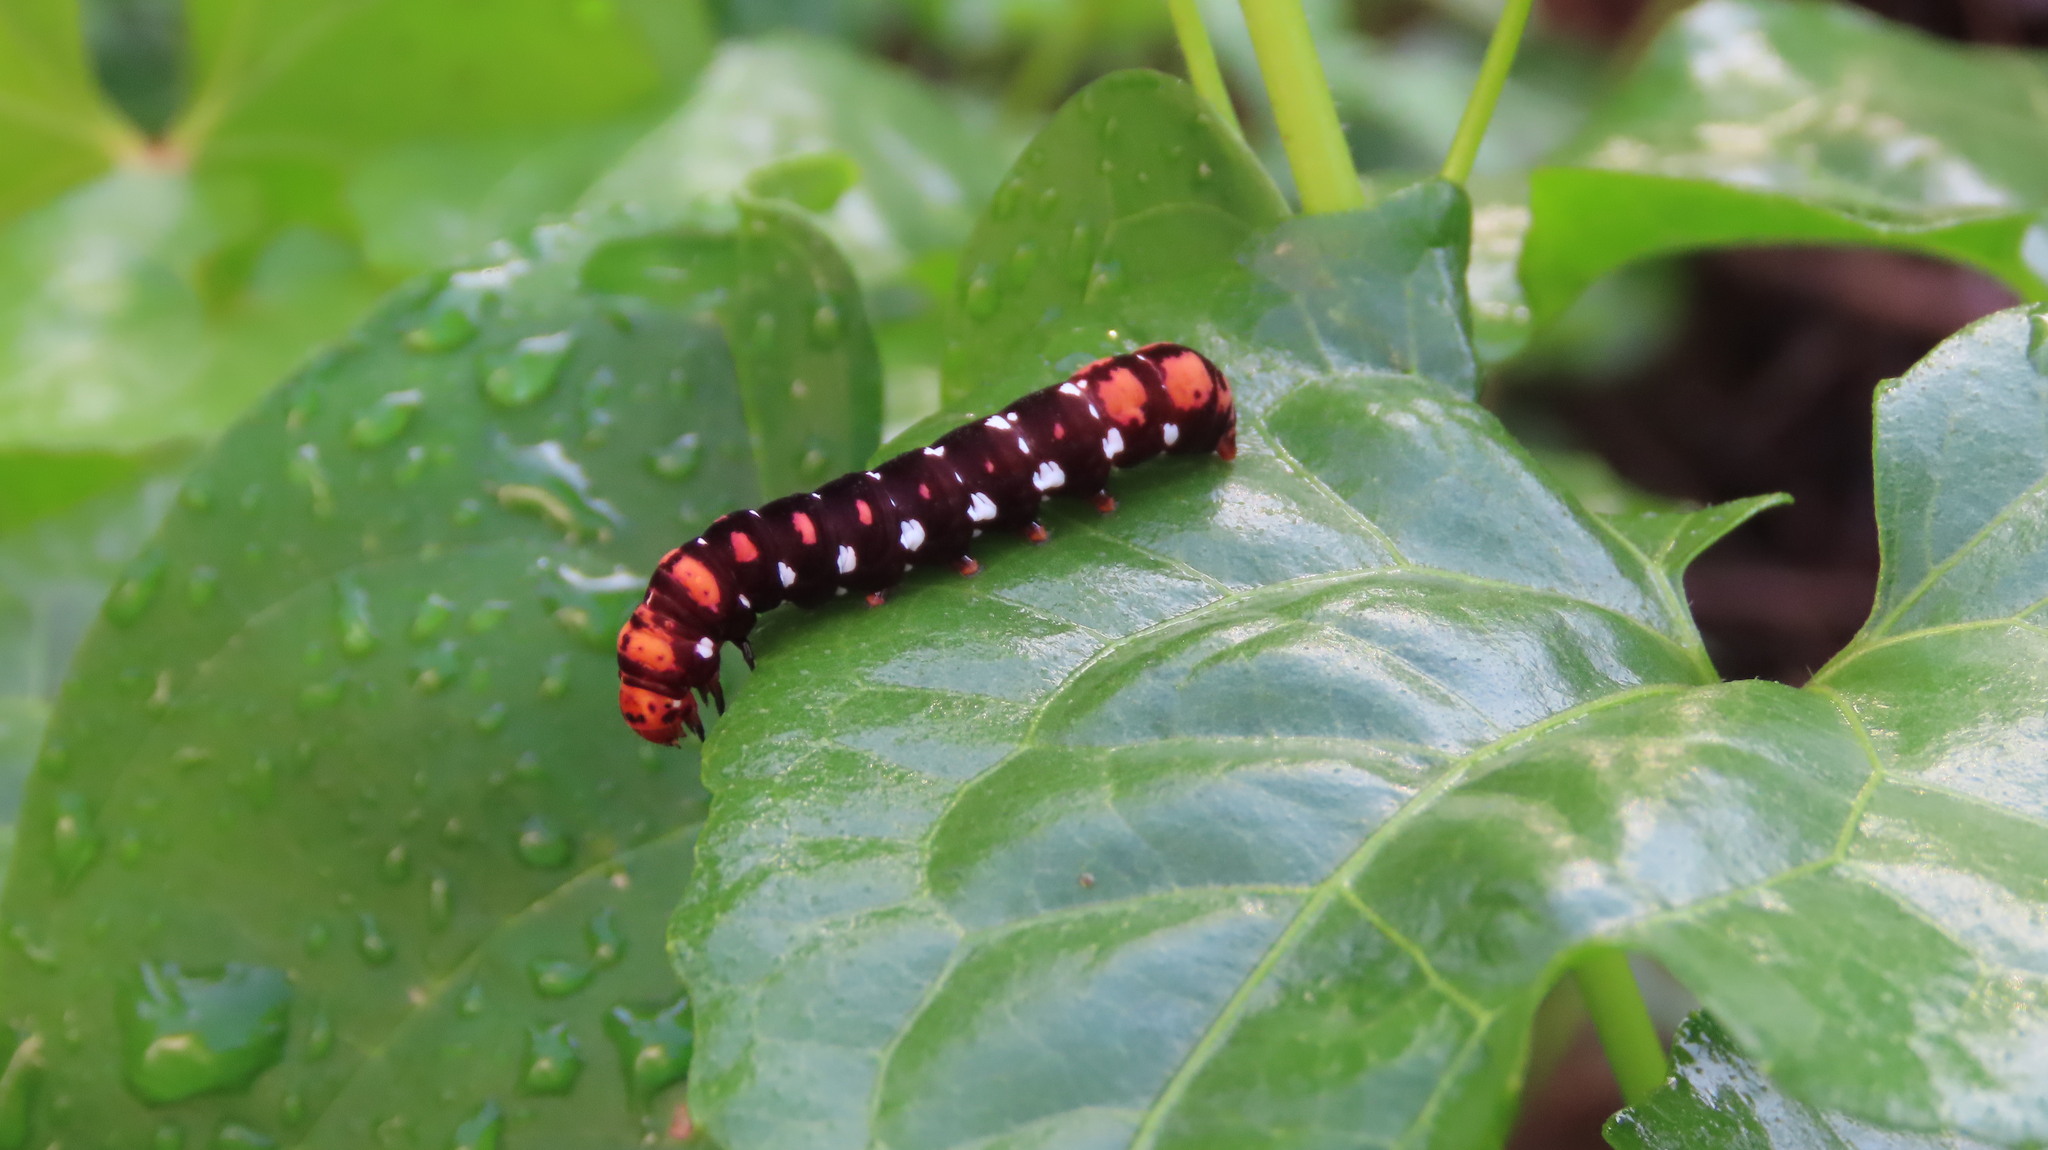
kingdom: Animalia
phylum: Arthropoda
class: Insecta
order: Lepidoptera
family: Noctuidae
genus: Polytela
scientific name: Polytela gloriosae
